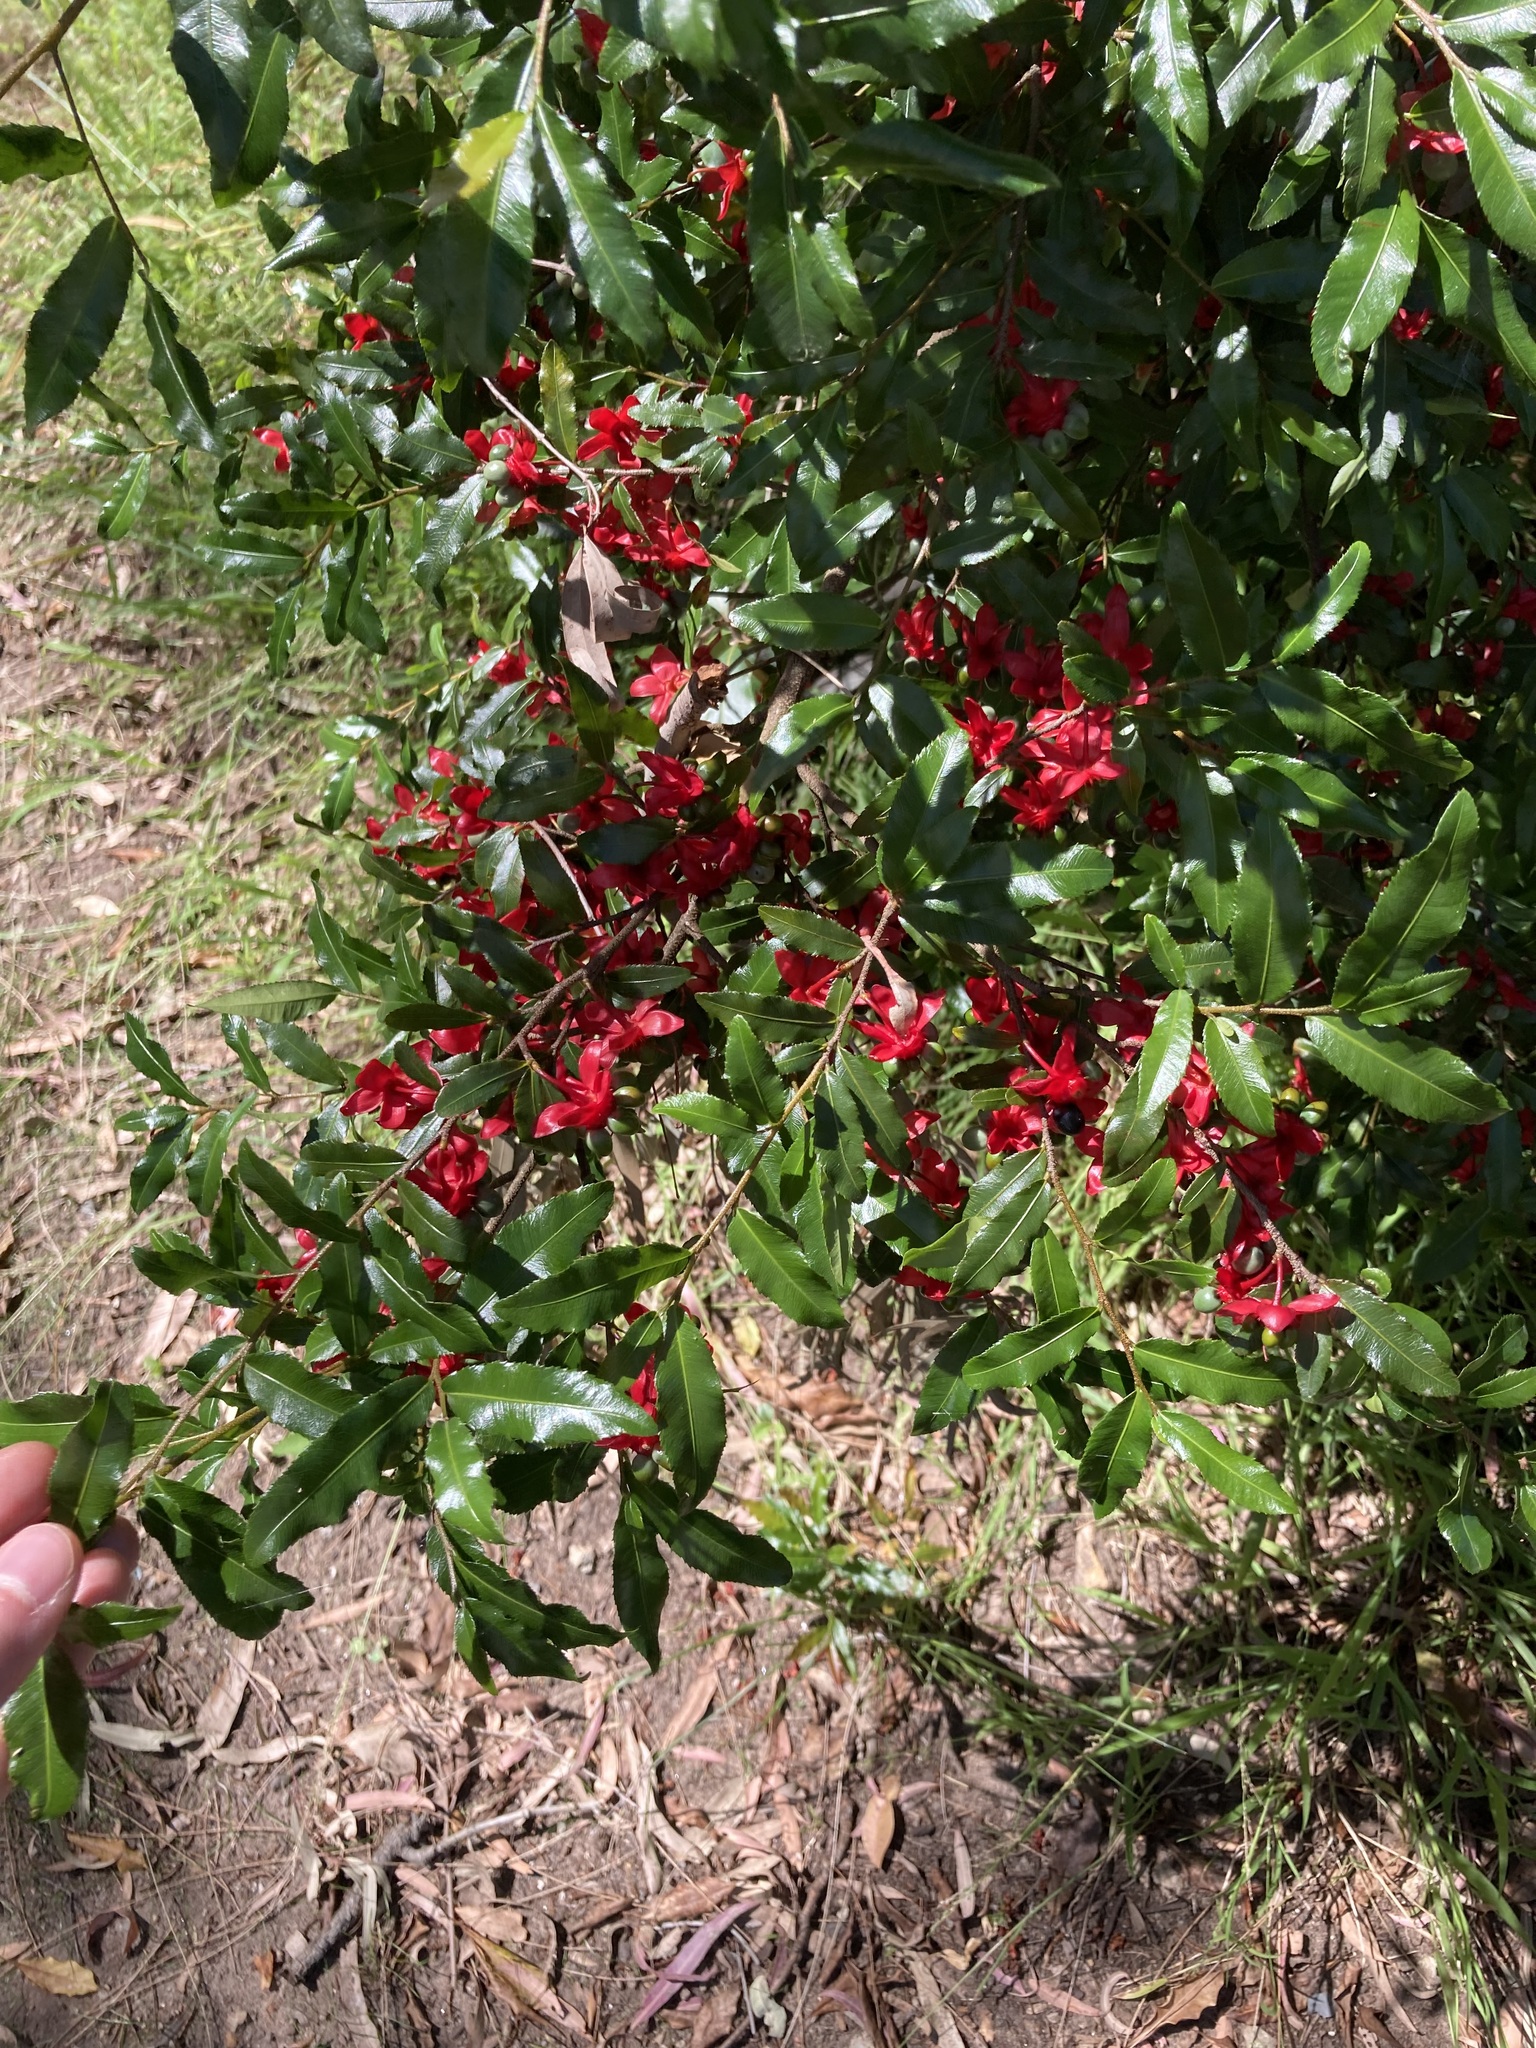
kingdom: Plantae
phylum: Tracheophyta
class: Magnoliopsida
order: Malpighiales
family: Ochnaceae
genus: Ochna
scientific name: Ochna serrulata
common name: Mickey mouse plant
